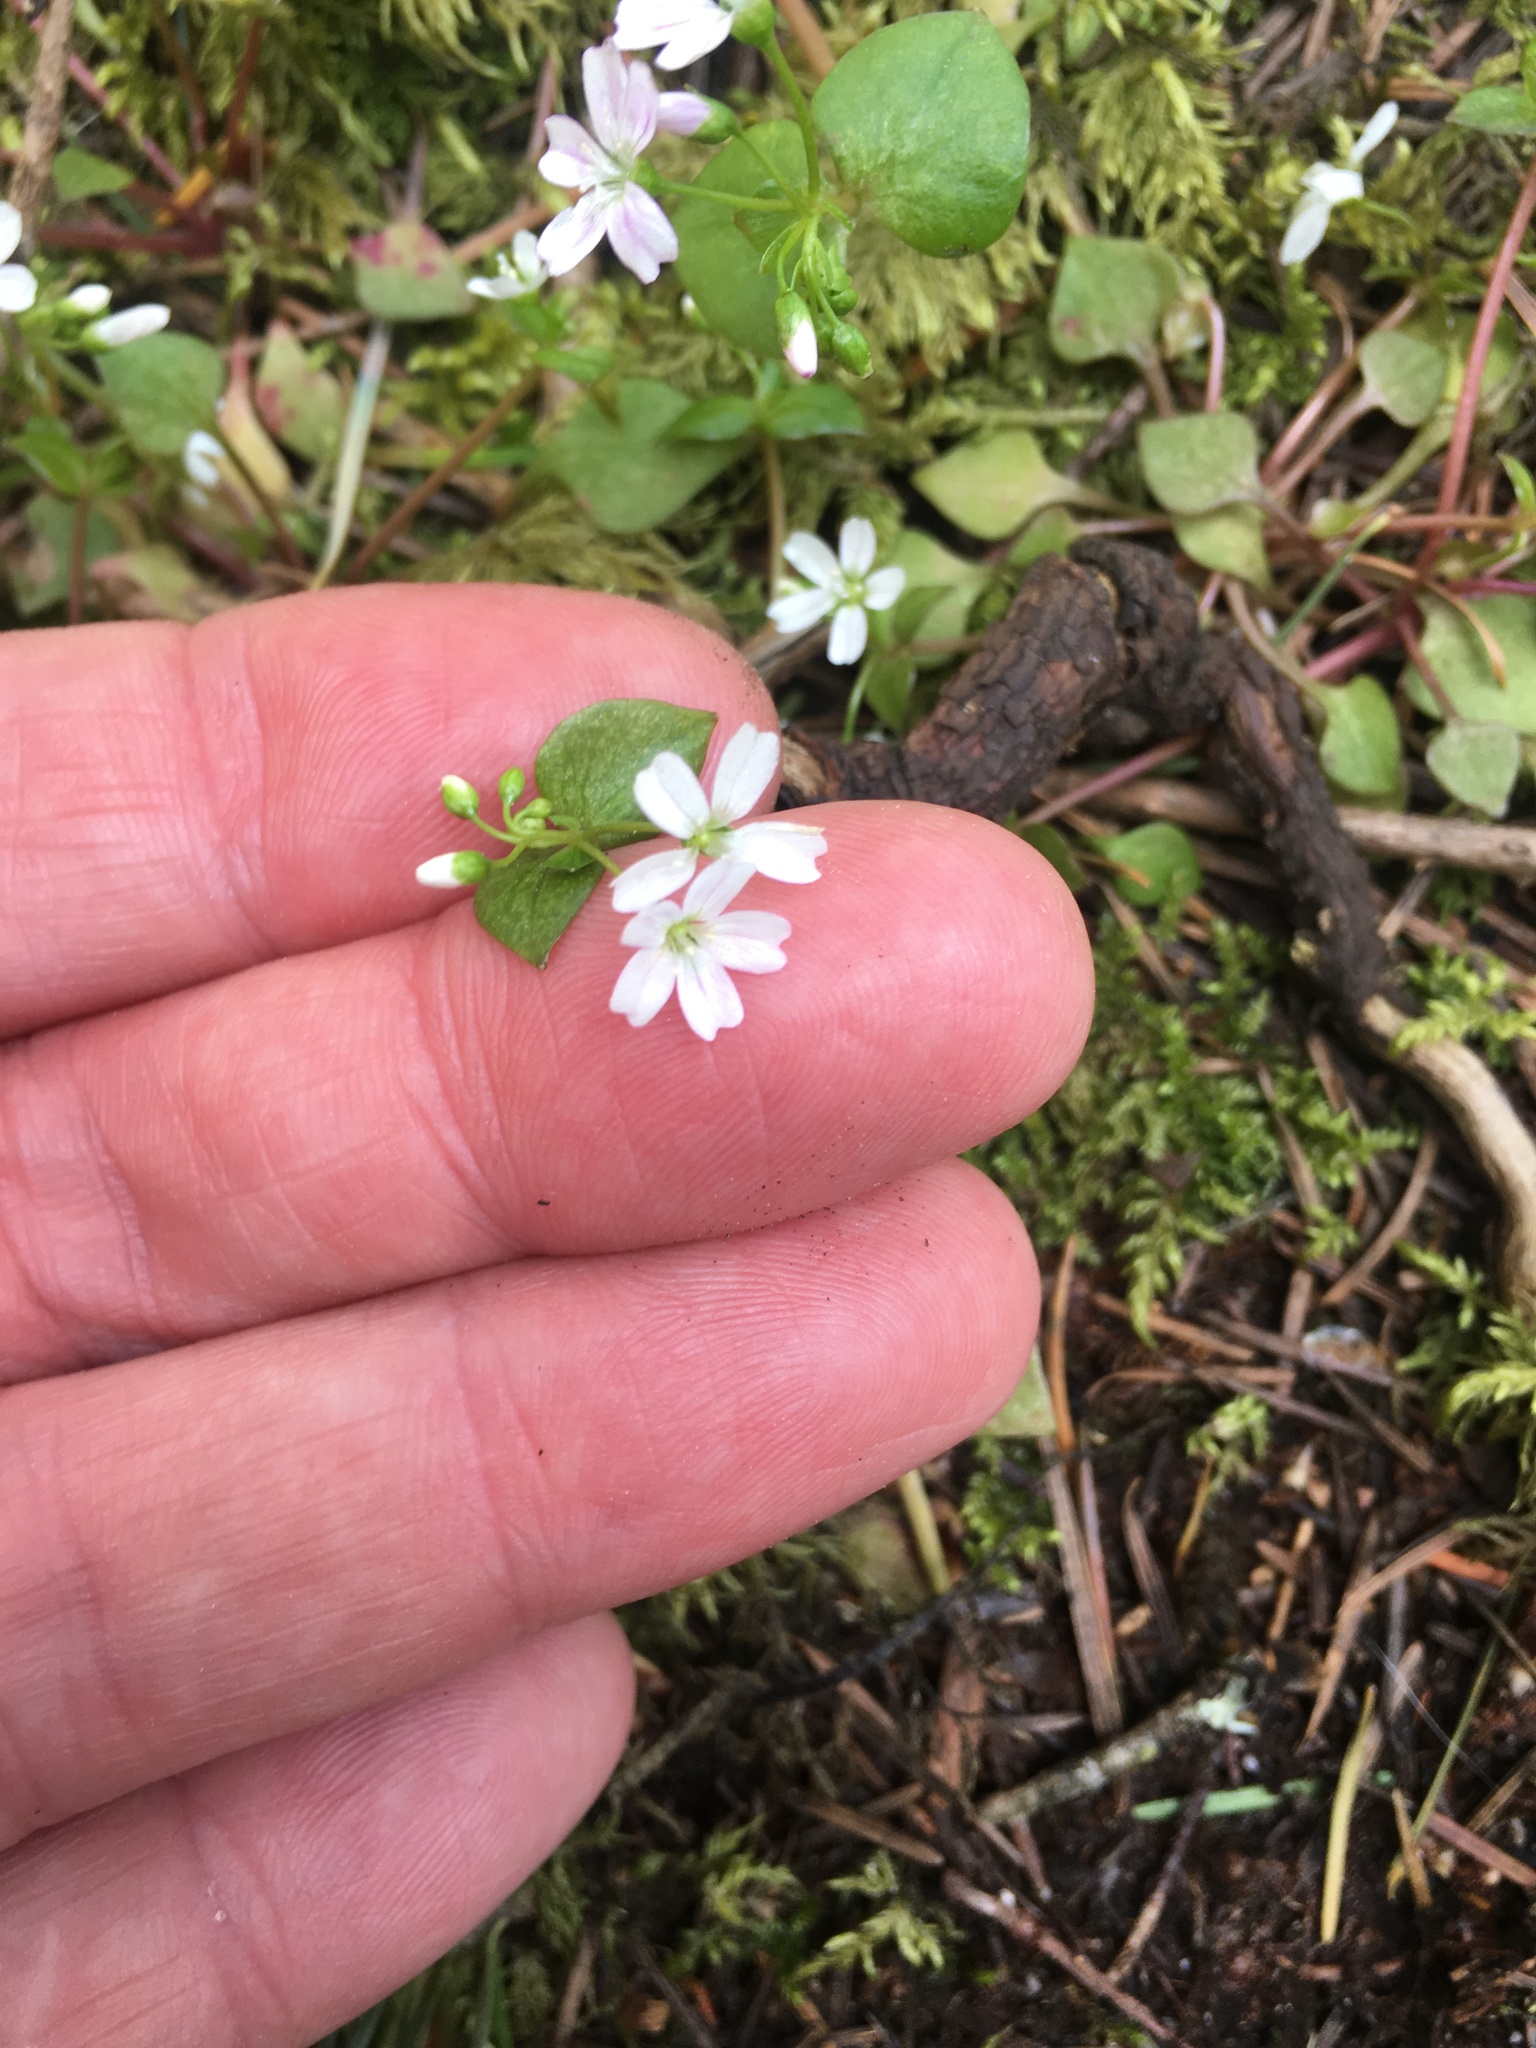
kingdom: Plantae
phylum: Tracheophyta
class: Magnoliopsida
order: Caryophyllales
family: Montiaceae
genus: Claytonia
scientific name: Claytonia sibirica
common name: Pink purslane
